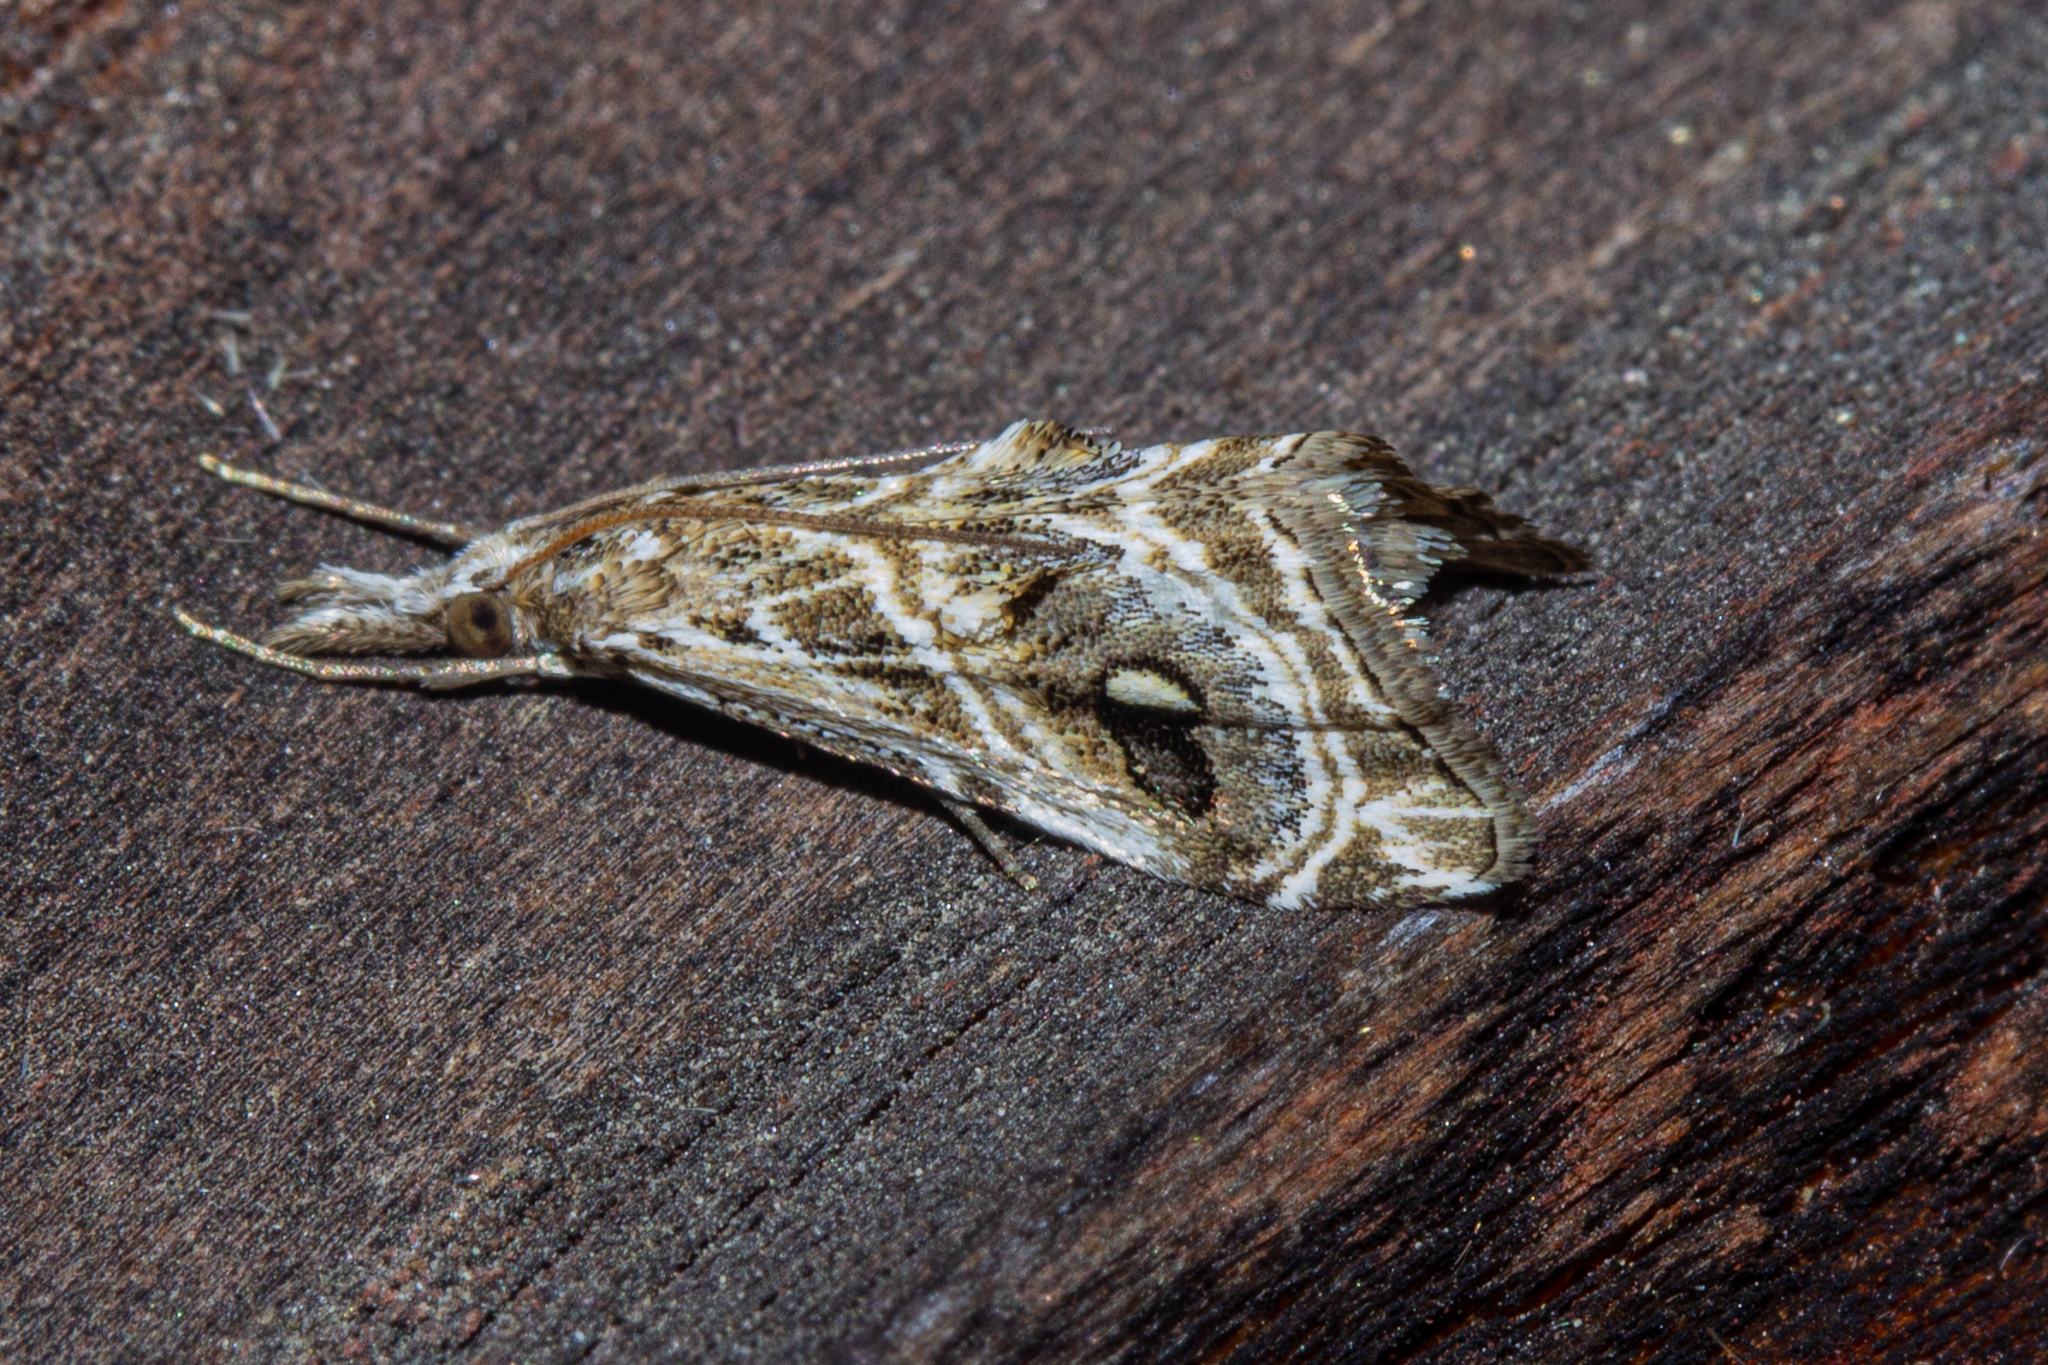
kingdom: Animalia
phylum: Arthropoda
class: Insecta
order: Lepidoptera
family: Crambidae
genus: Gadira
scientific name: Gadira acerella
